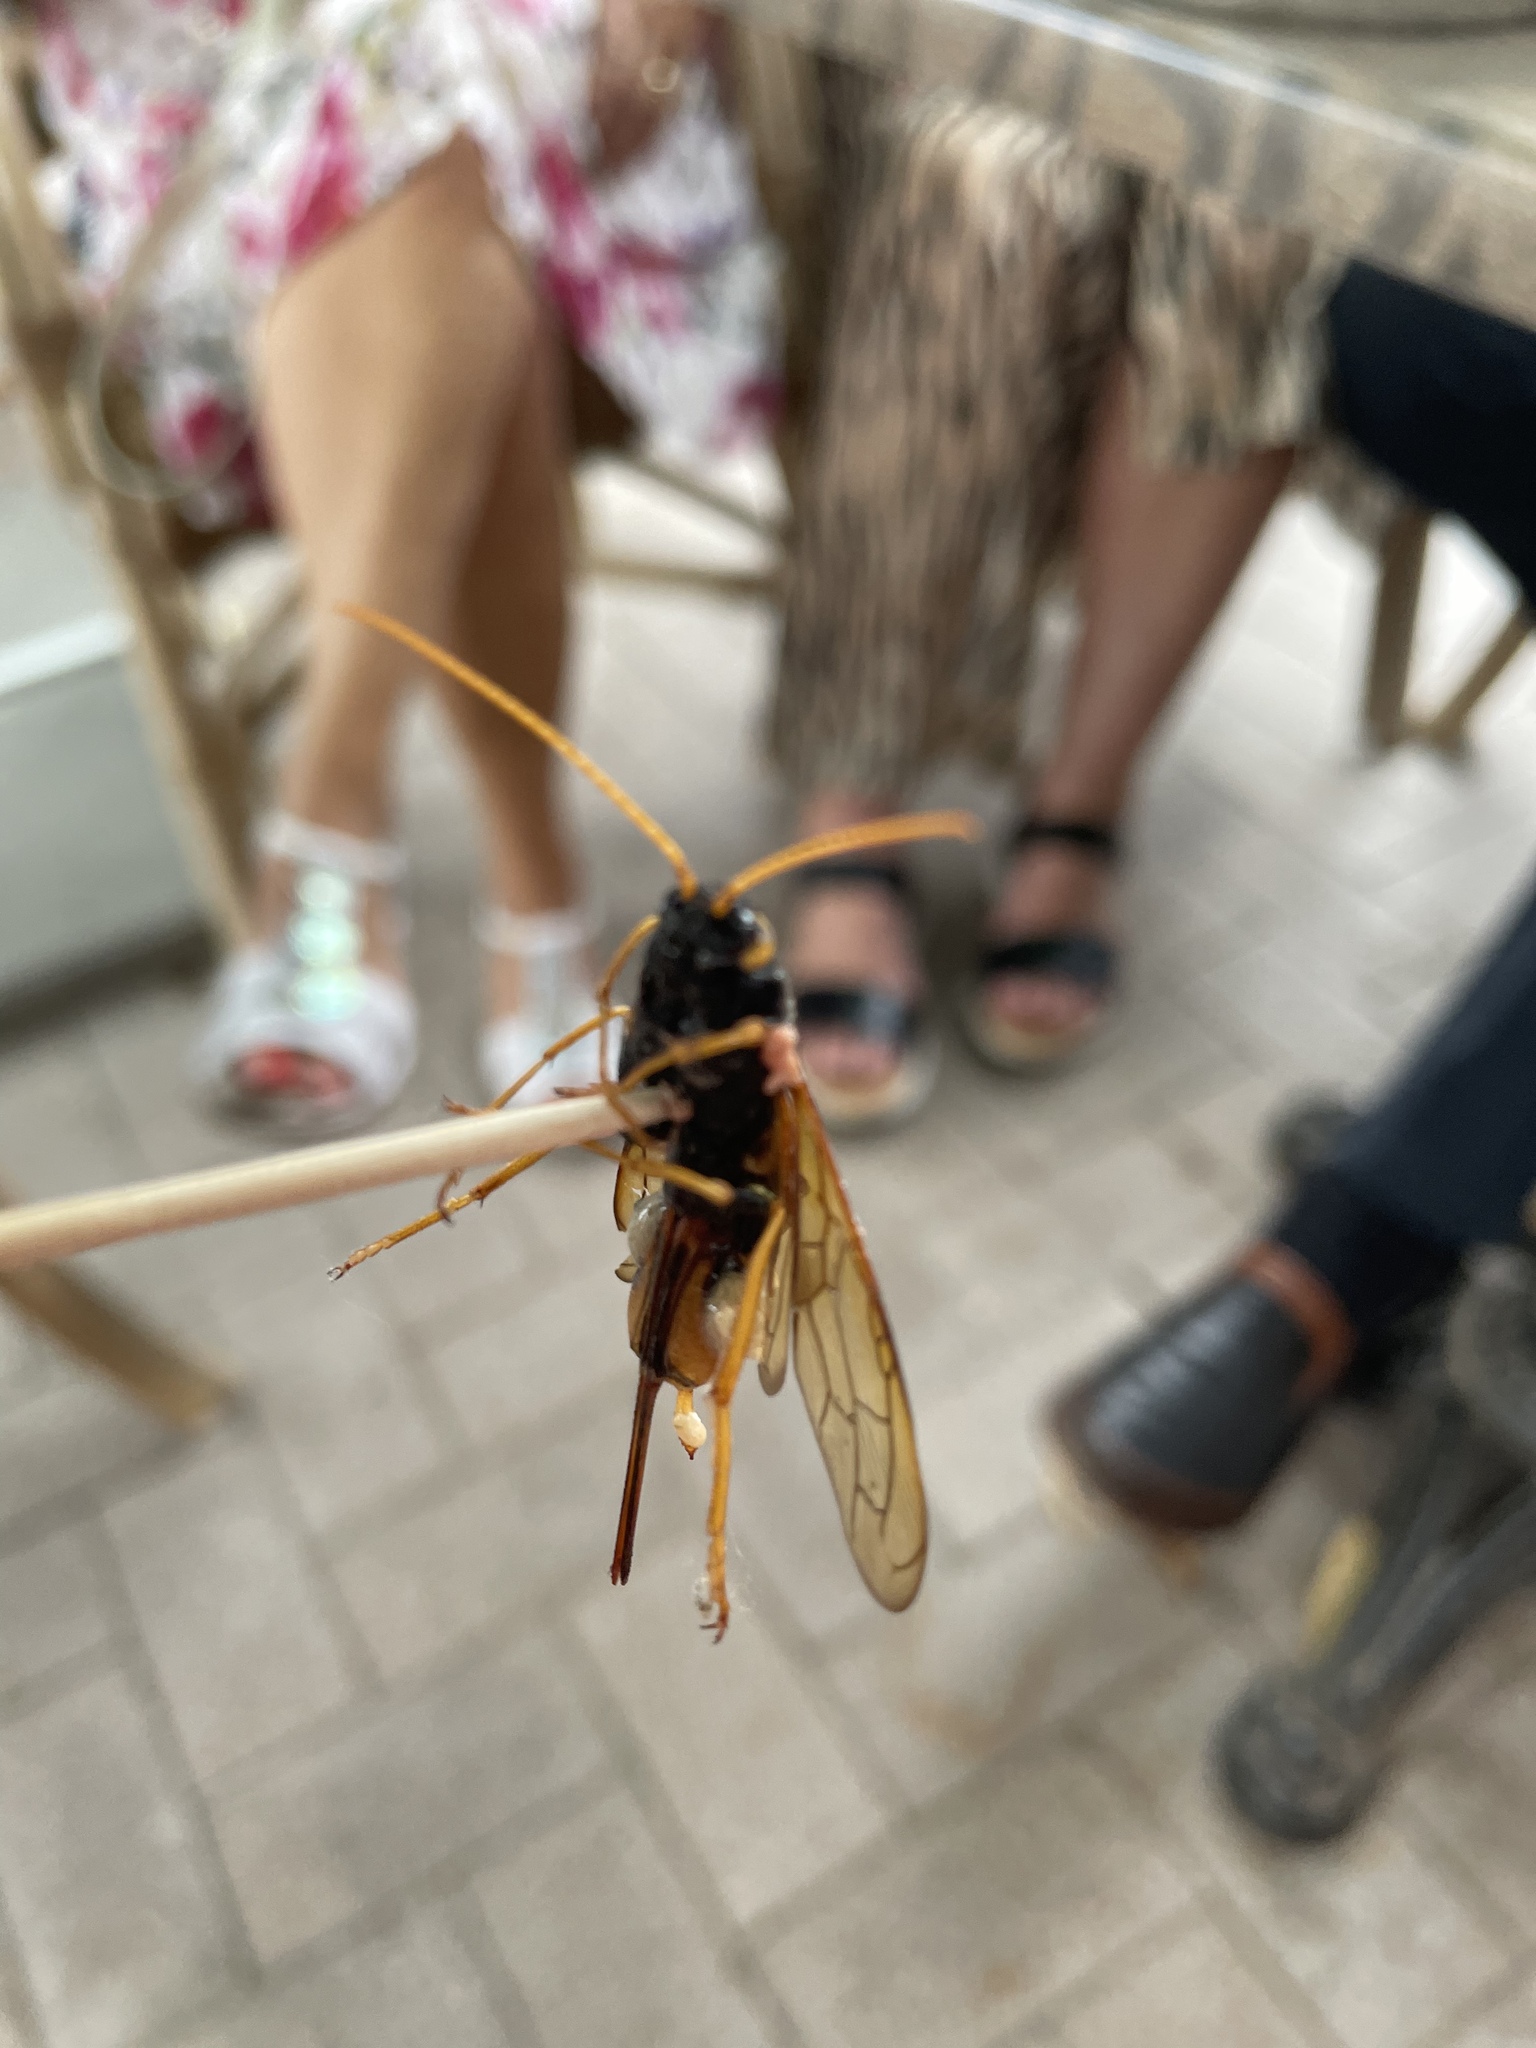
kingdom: Animalia
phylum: Arthropoda
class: Insecta
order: Hymenoptera
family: Siricidae
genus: Urocerus
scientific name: Urocerus gigas
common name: Giant woodwasp
